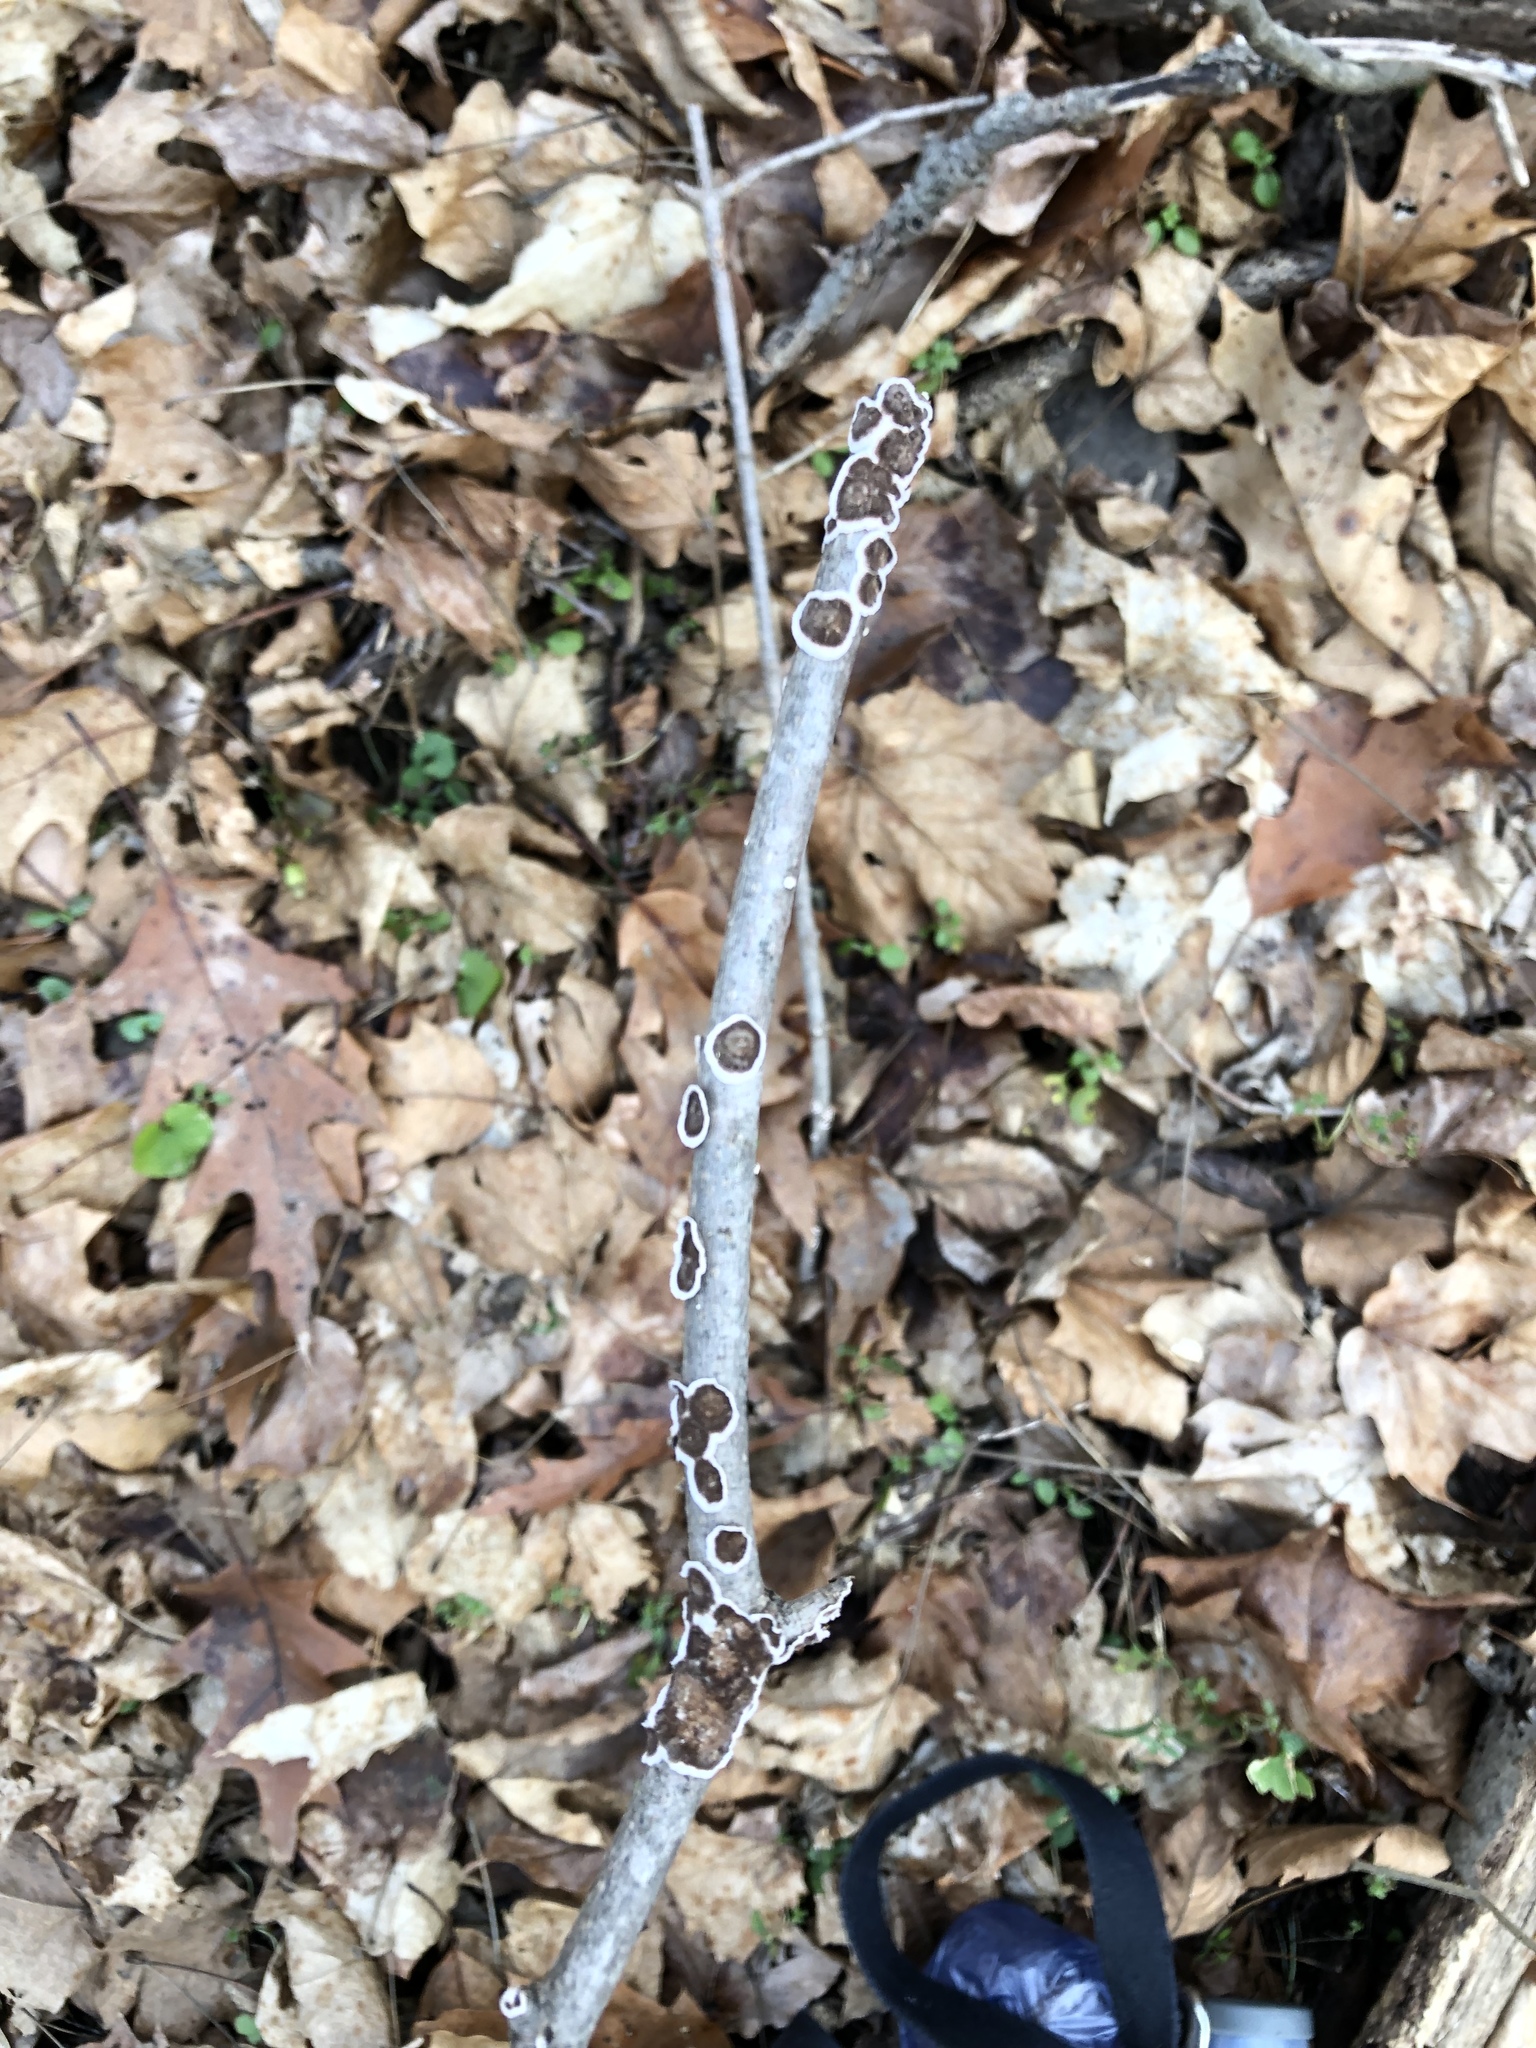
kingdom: Fungi
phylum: Basidiomycota
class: Agaricomycetes
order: Russulales
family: Peniophoraceae
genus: Peniophora
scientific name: Peniophora albobadia
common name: Giraffe spots
